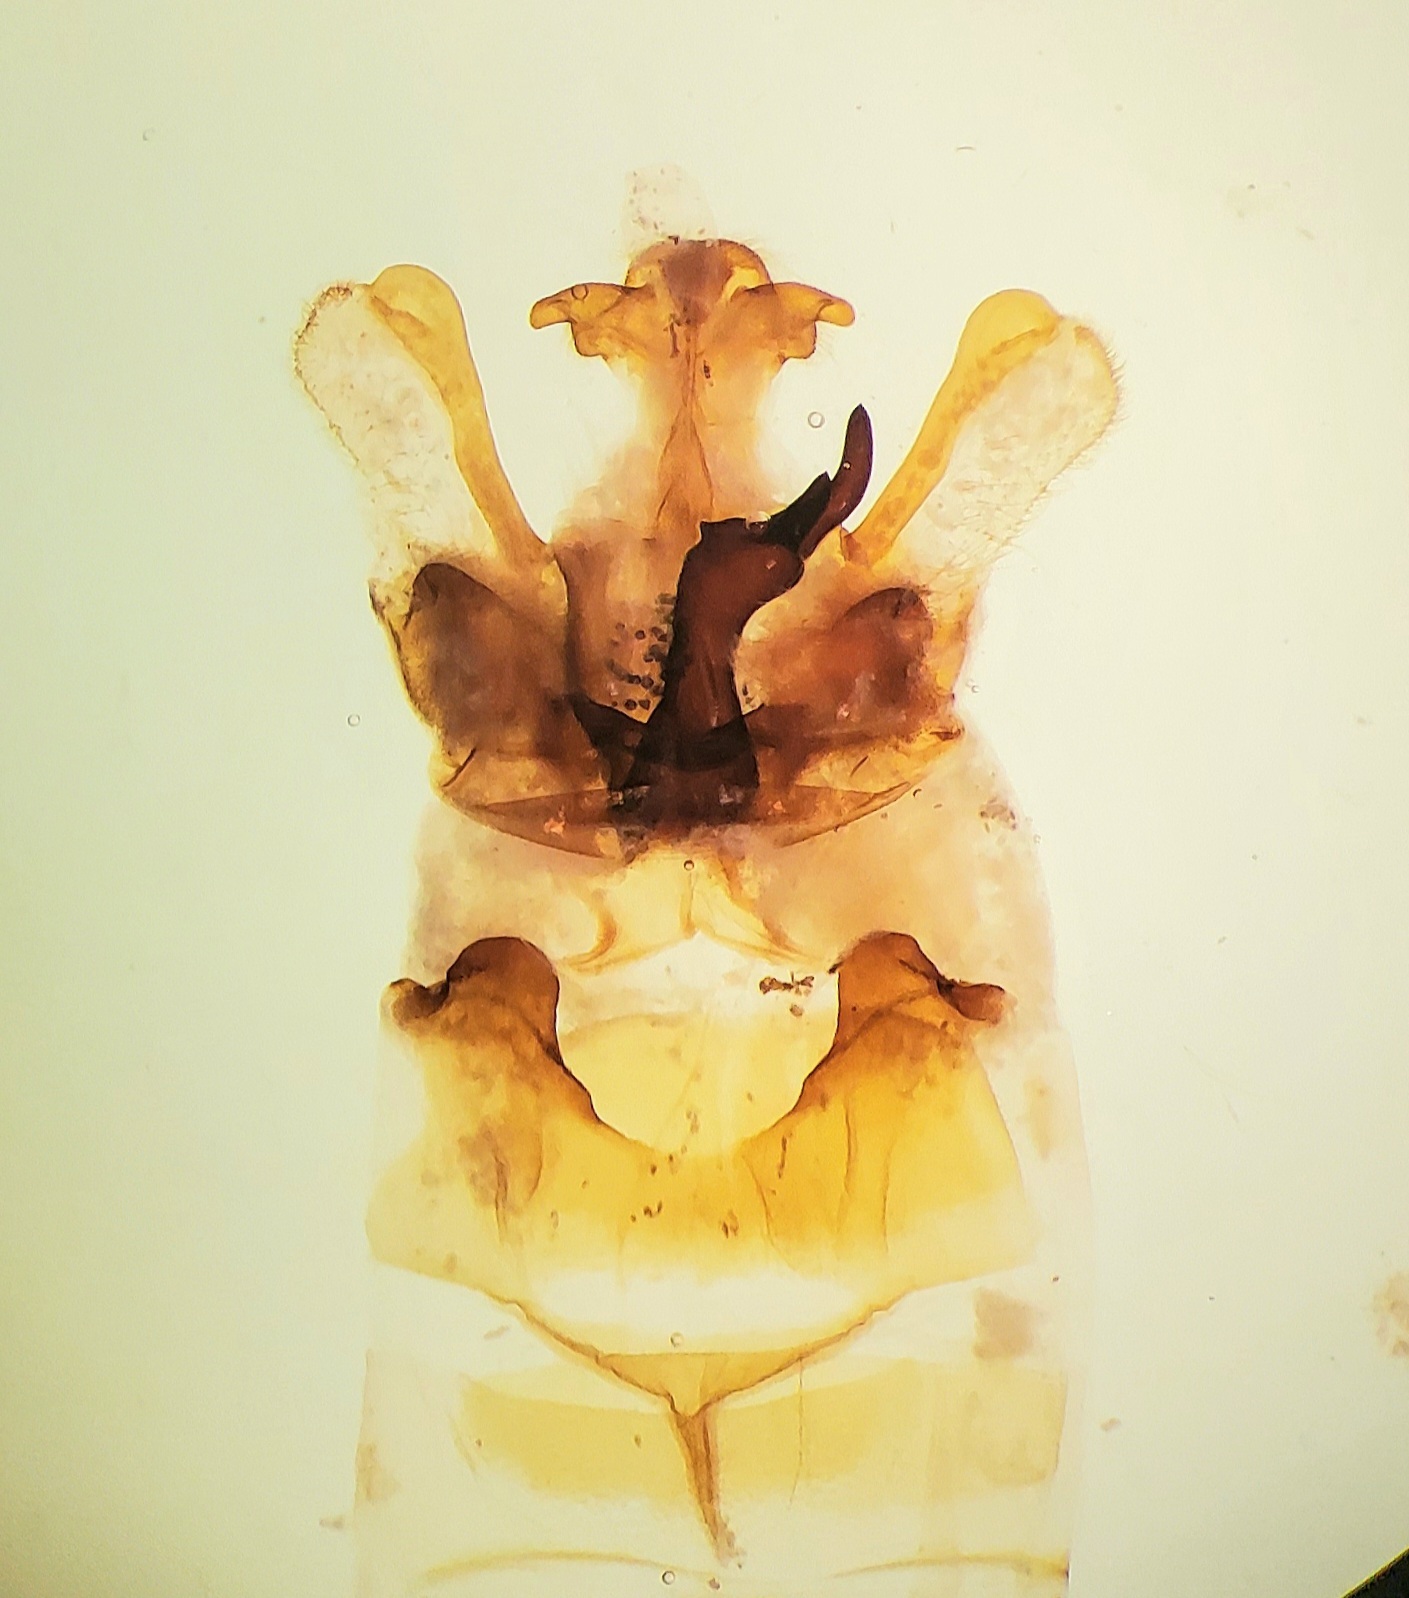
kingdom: Animalia
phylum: Arthropoda
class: Insecta
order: Lepidoptera
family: Notodontidae
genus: Symmerista
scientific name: Symmerista albifrons
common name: White-headed prominent
